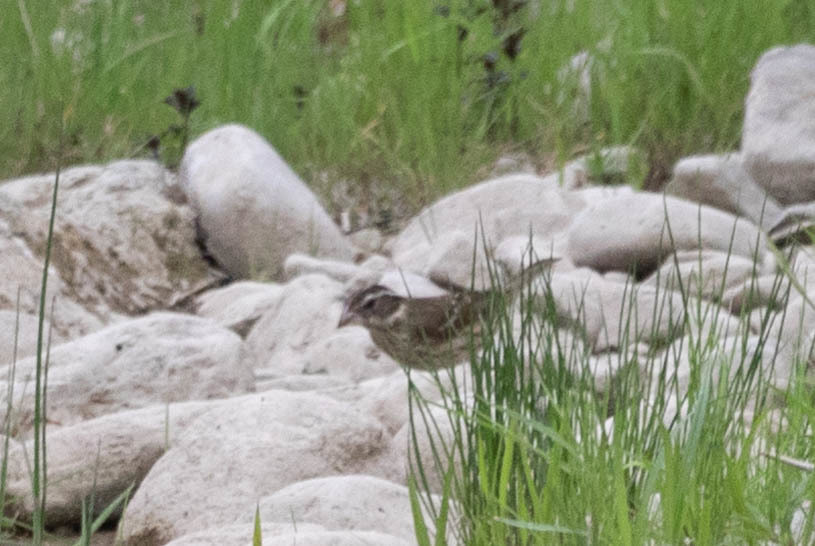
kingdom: Animalia
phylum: Chordata
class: Aves
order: Passeriformes
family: Cardinalidae
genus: Pheucticus
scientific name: Pheucticus ludovicianus
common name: Rose-breasted grosbeak
